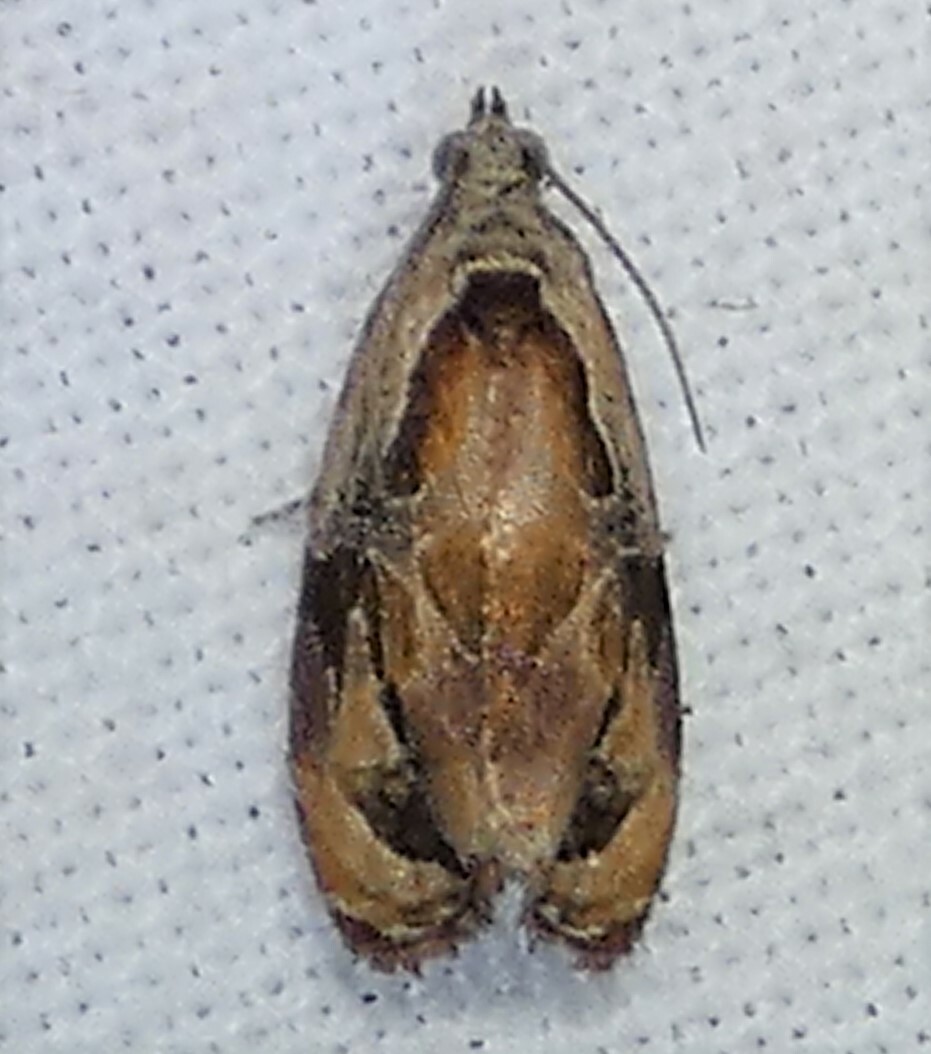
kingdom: Animalia
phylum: Arthropoda
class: Insecta
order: Lepidoptera
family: Tortricidae
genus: Zomaria
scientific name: Zomaria interruptolineana
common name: Broken-lined zomaria moth
